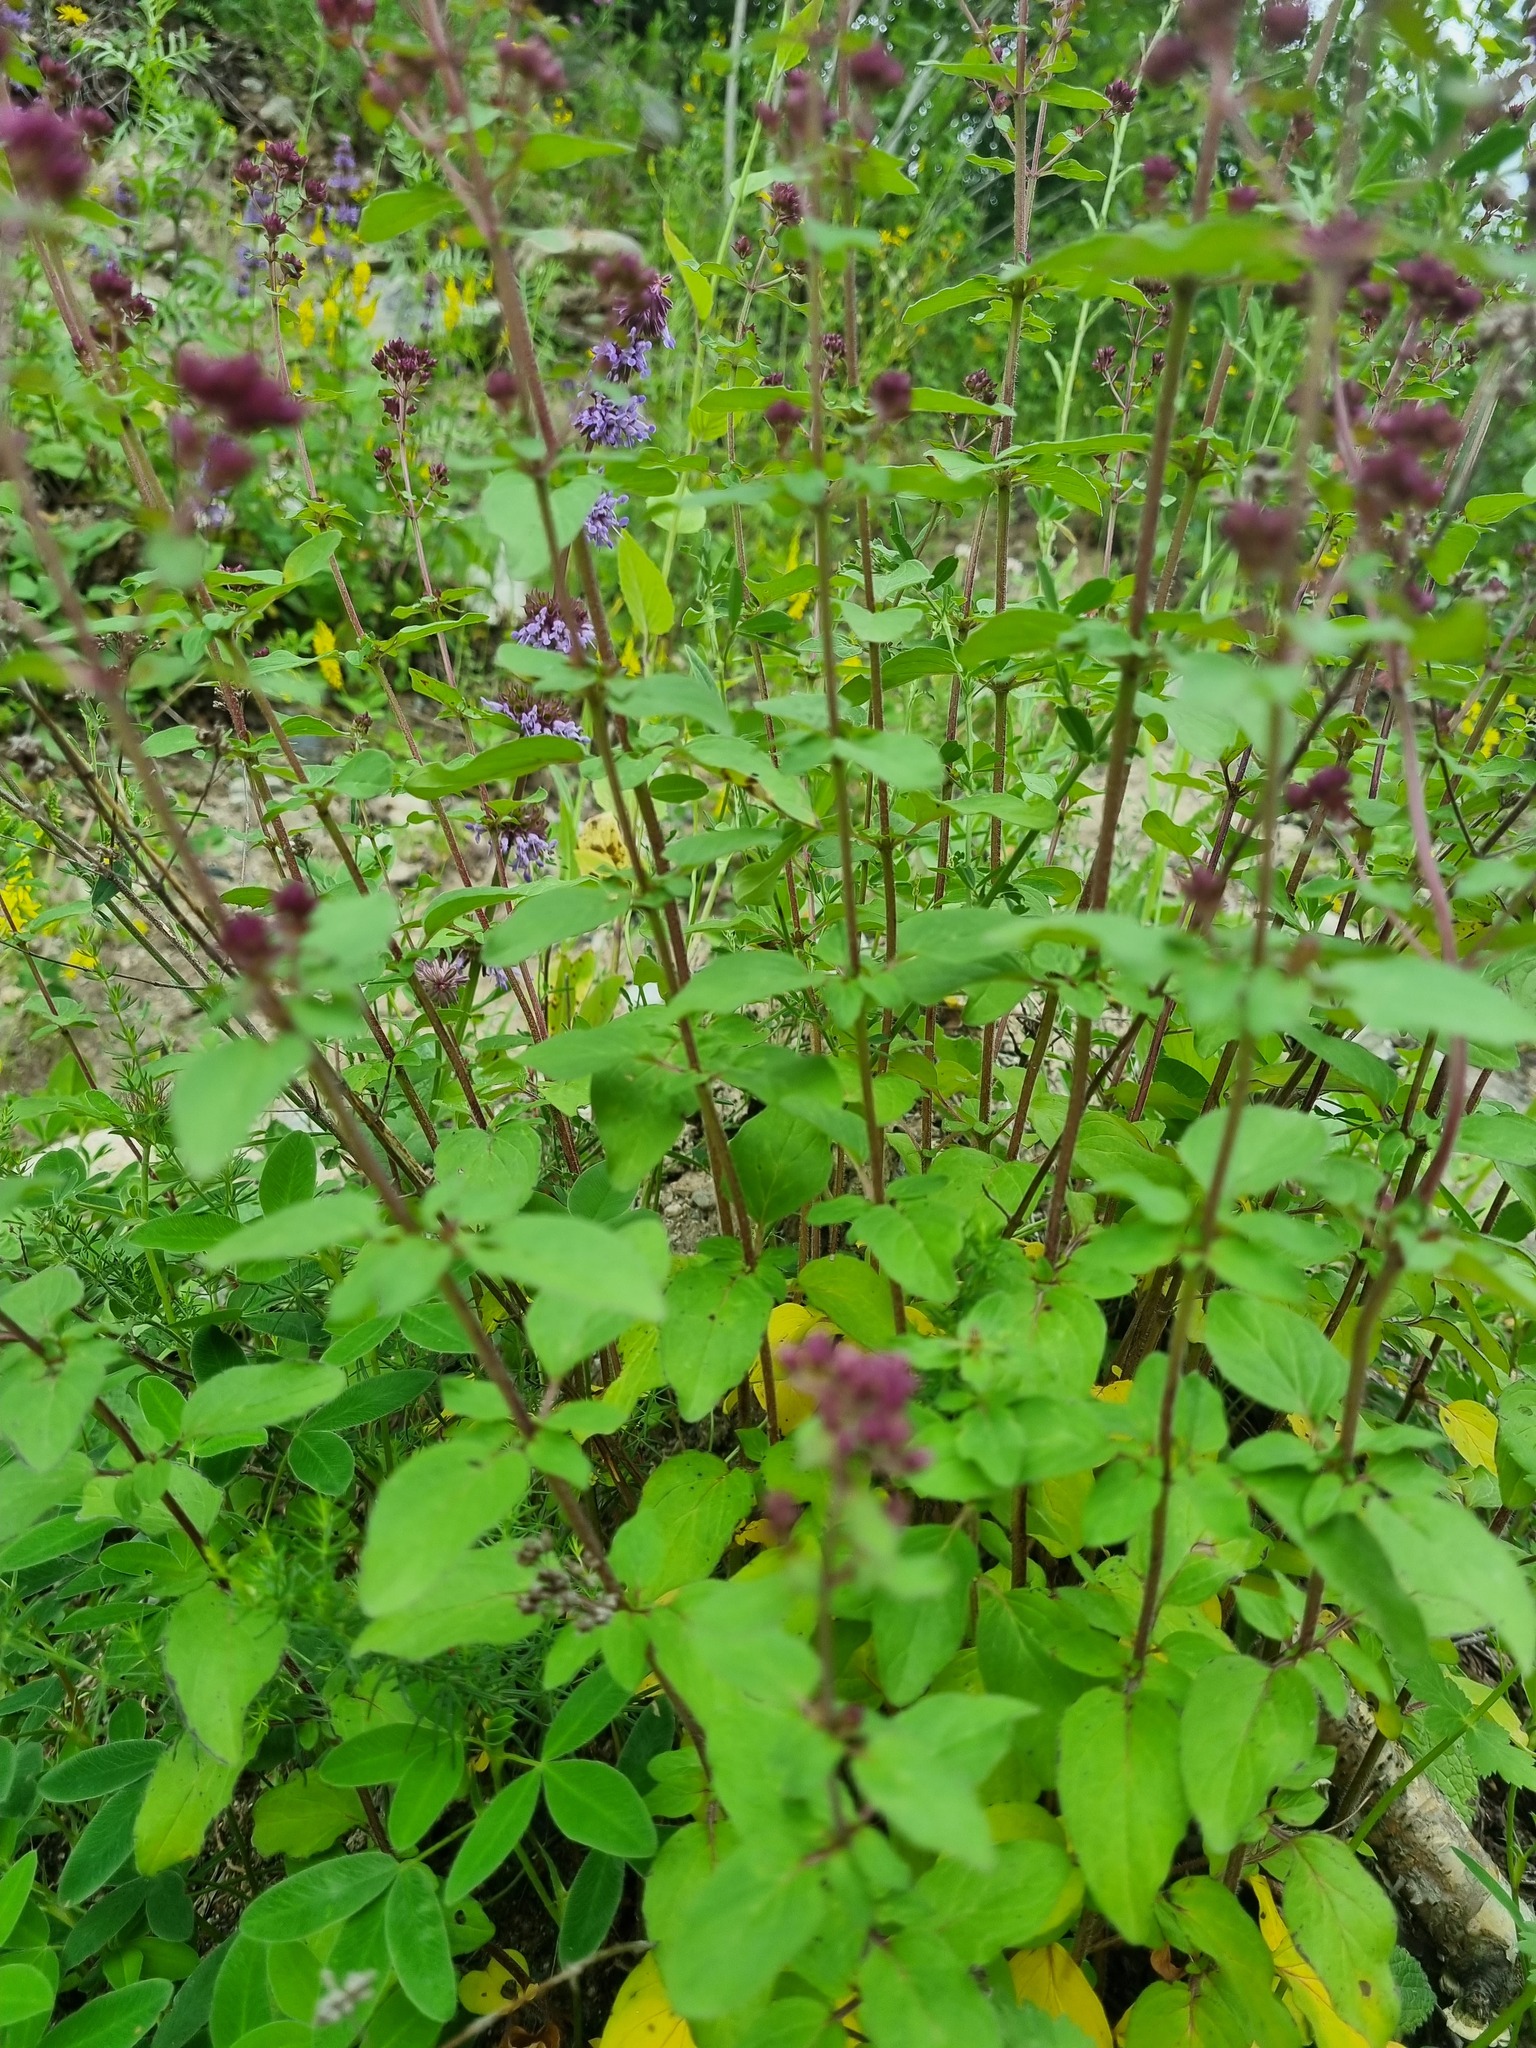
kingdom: Plantae
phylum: Tracheophyta
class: Magnoliopsida
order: Lamiales
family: Lamiaceae
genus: Origanum
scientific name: Origanum vulgare
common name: Wild marjoram
